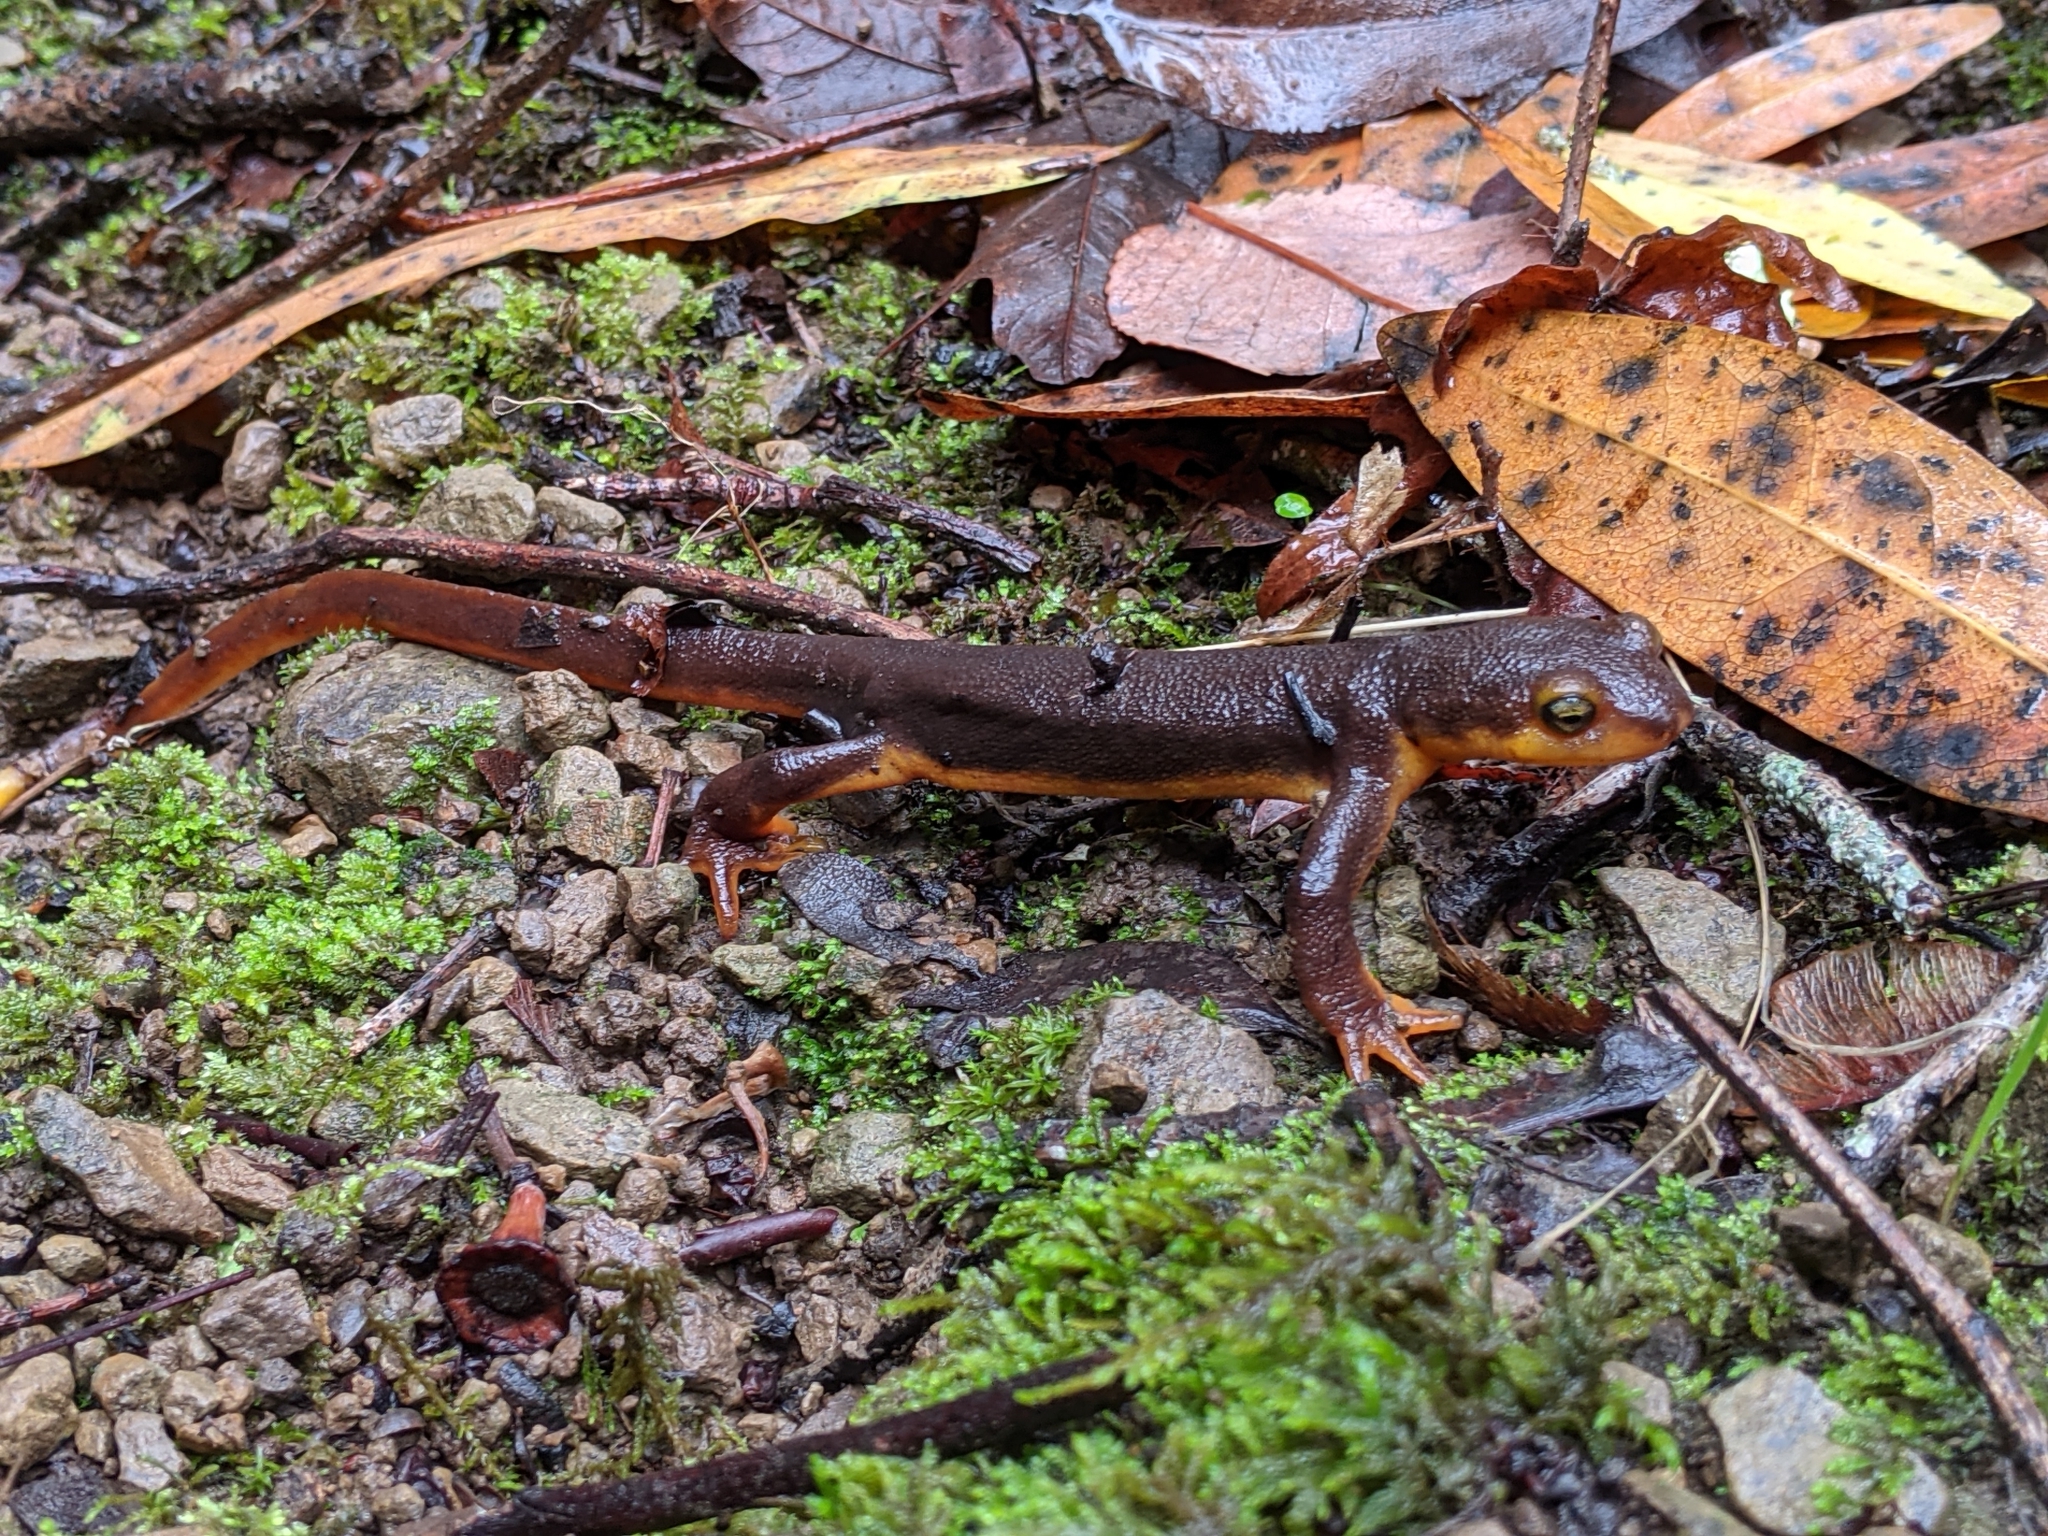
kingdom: Animalia
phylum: Chordata
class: Amphibia
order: Caudata
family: Salamandridae
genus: Taricha
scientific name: Taricha torosa
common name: California newt
